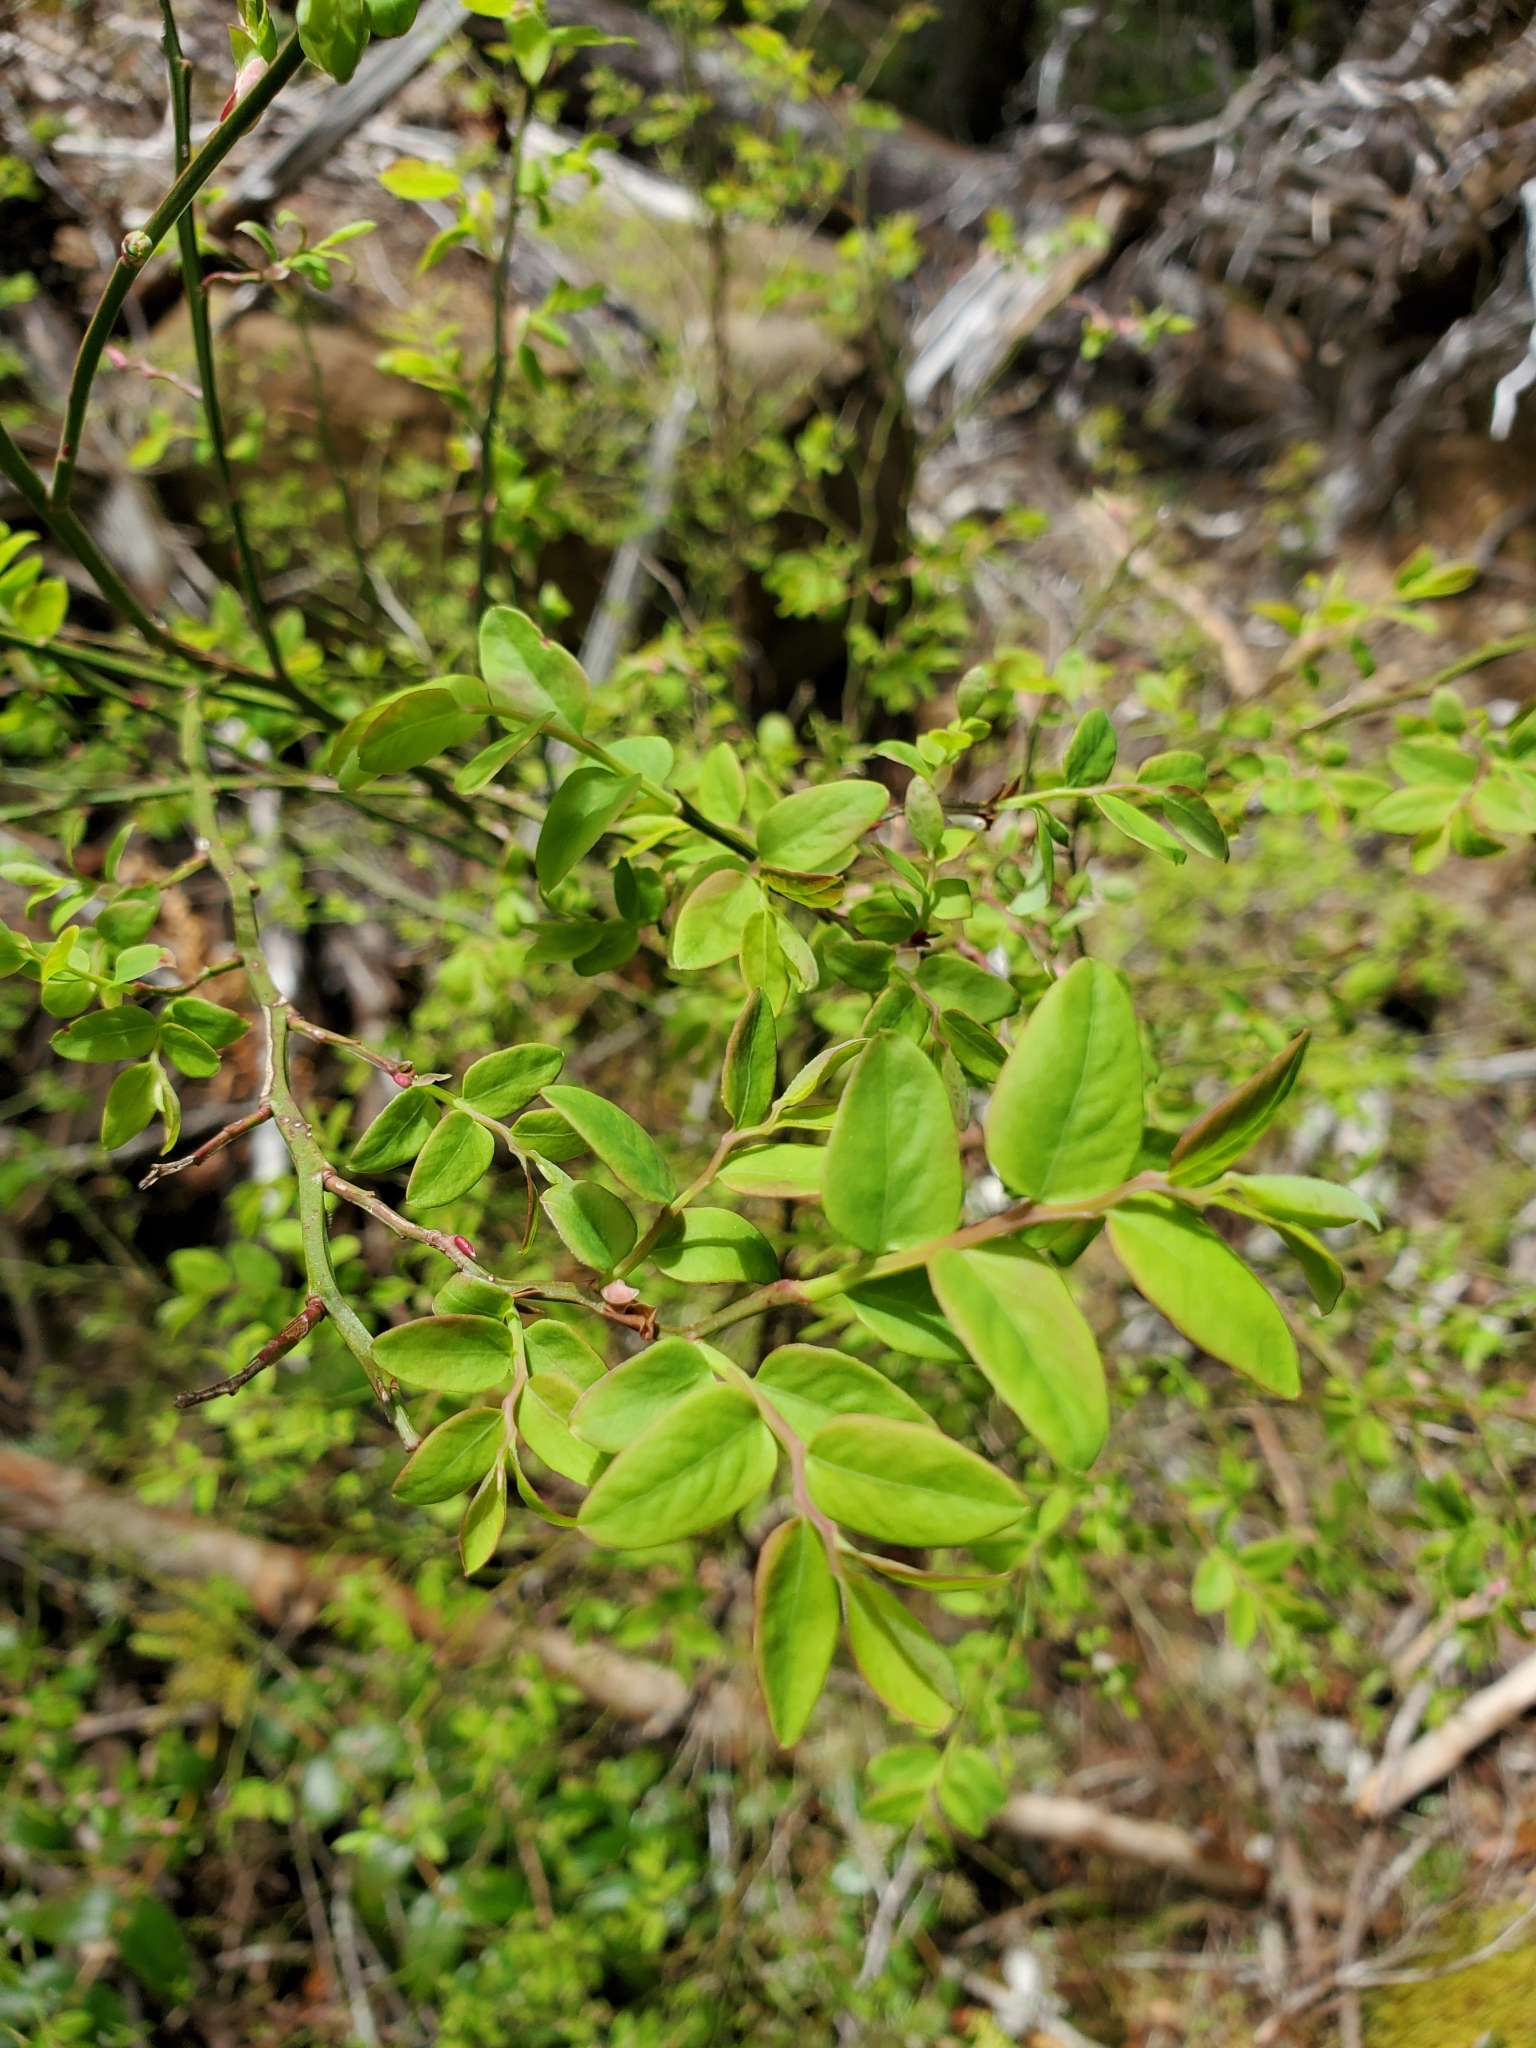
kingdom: Plantae
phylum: Tracheophyta
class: Magnoliopsida
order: Ericales
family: Ericaceae
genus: Vaccinium
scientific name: Vaccinium parvifolium
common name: Red-huckleberry
